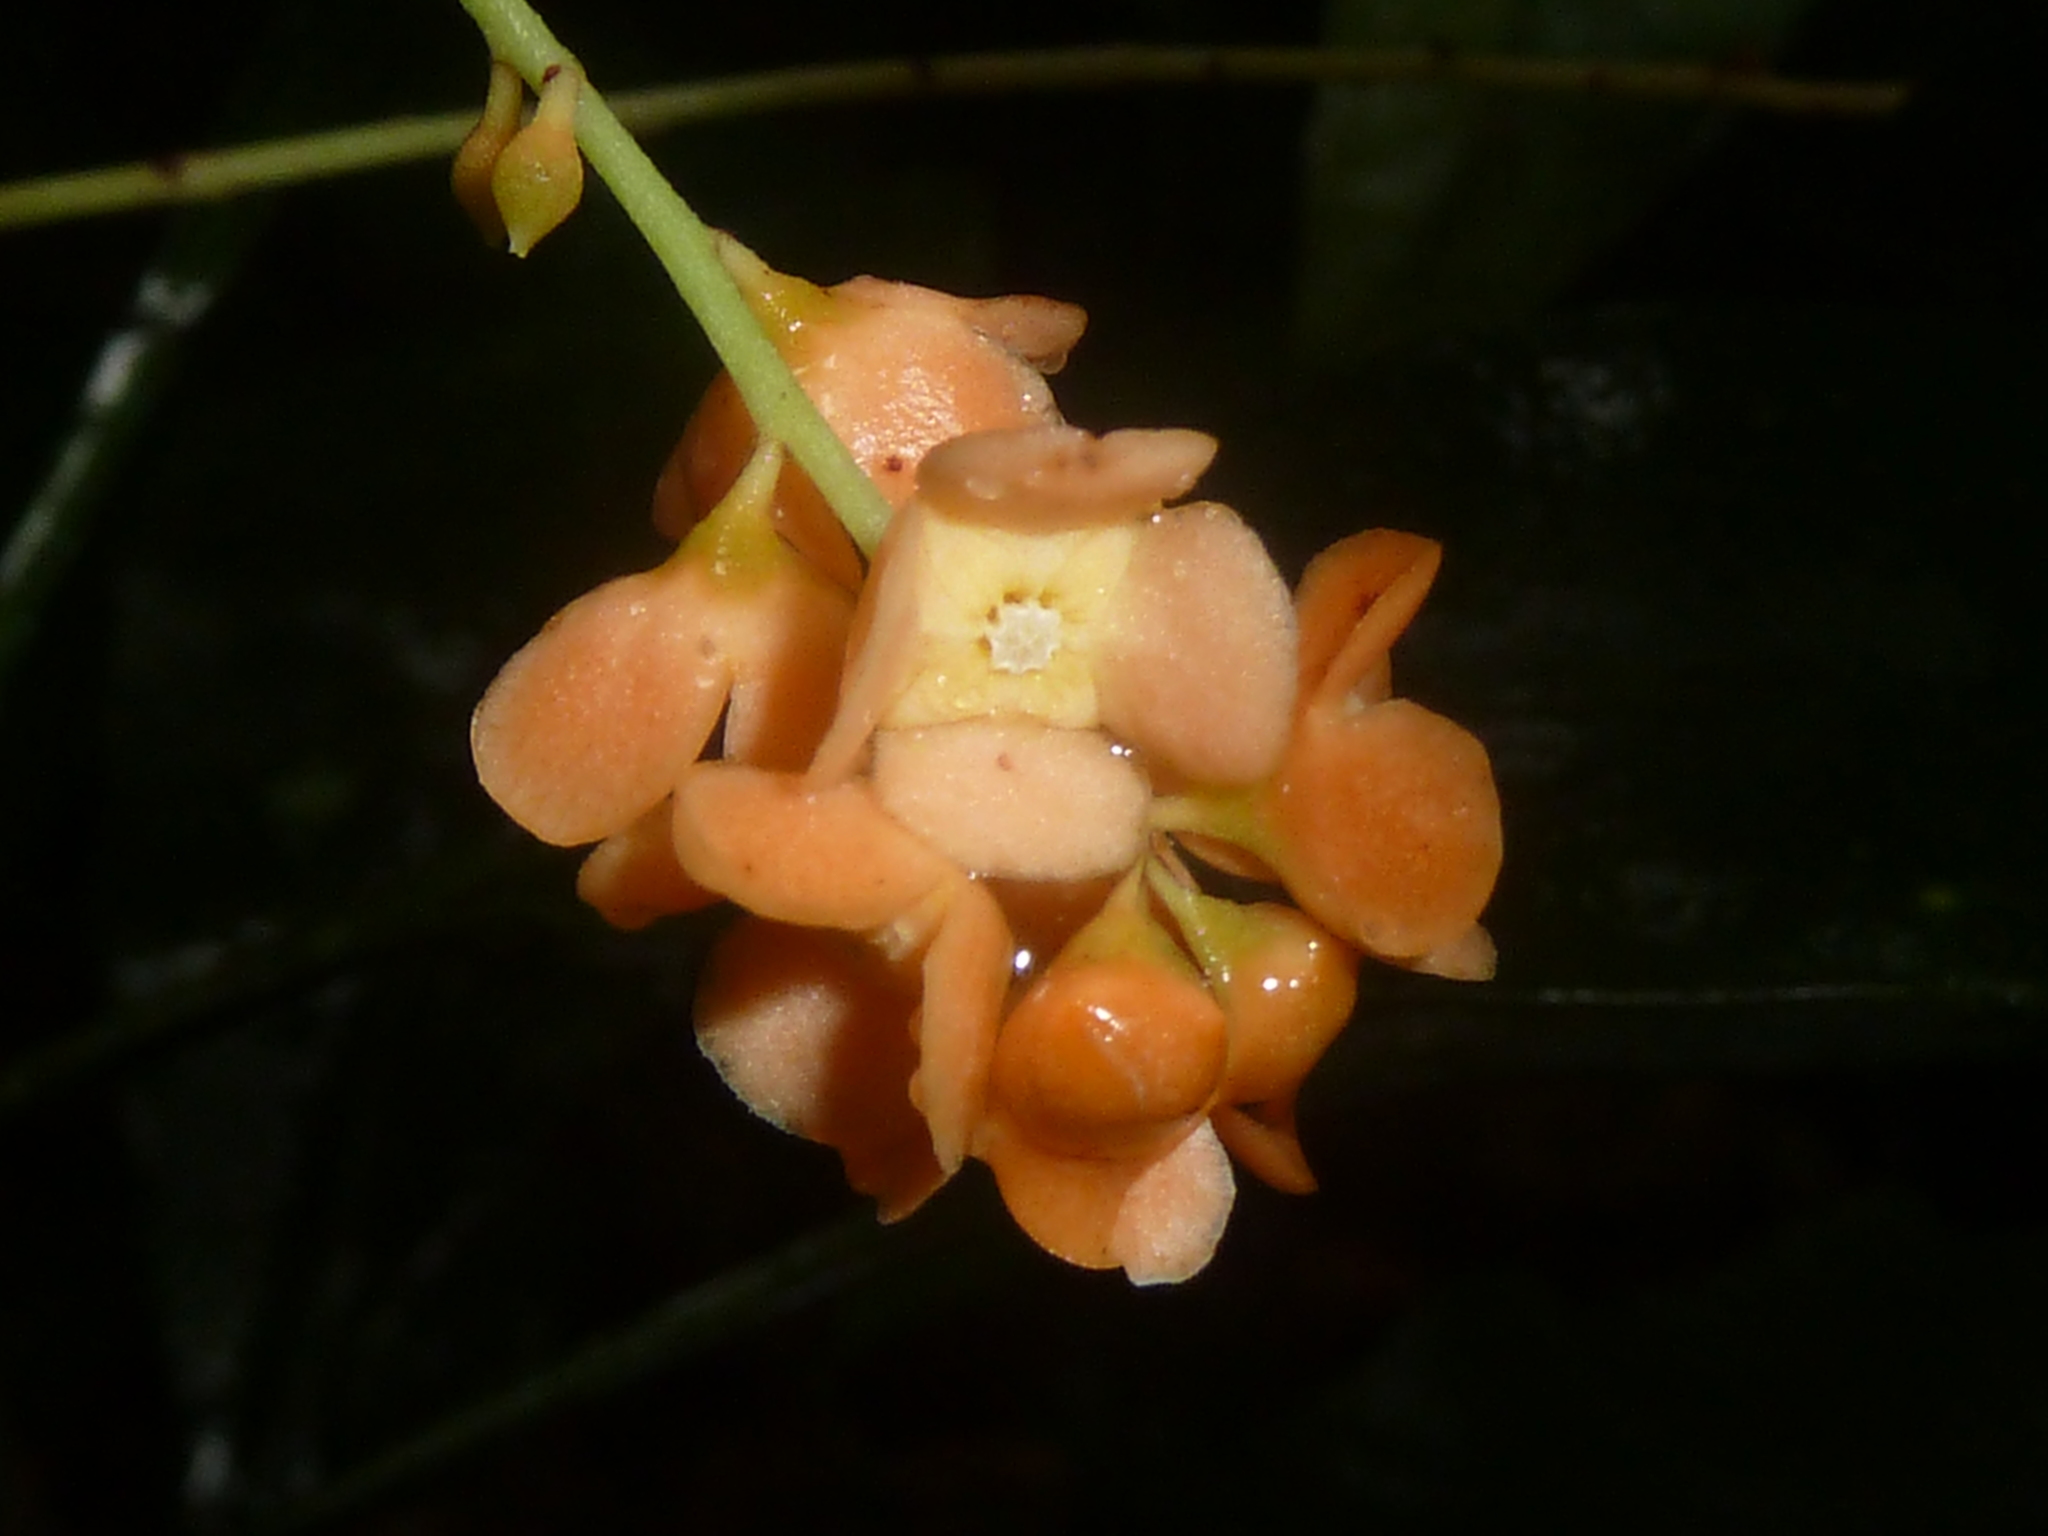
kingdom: Plantae
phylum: Tracheophyta
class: Magnoliopsida
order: Ericales
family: Primulaceae
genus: Clavija
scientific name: Clavija biborrana
